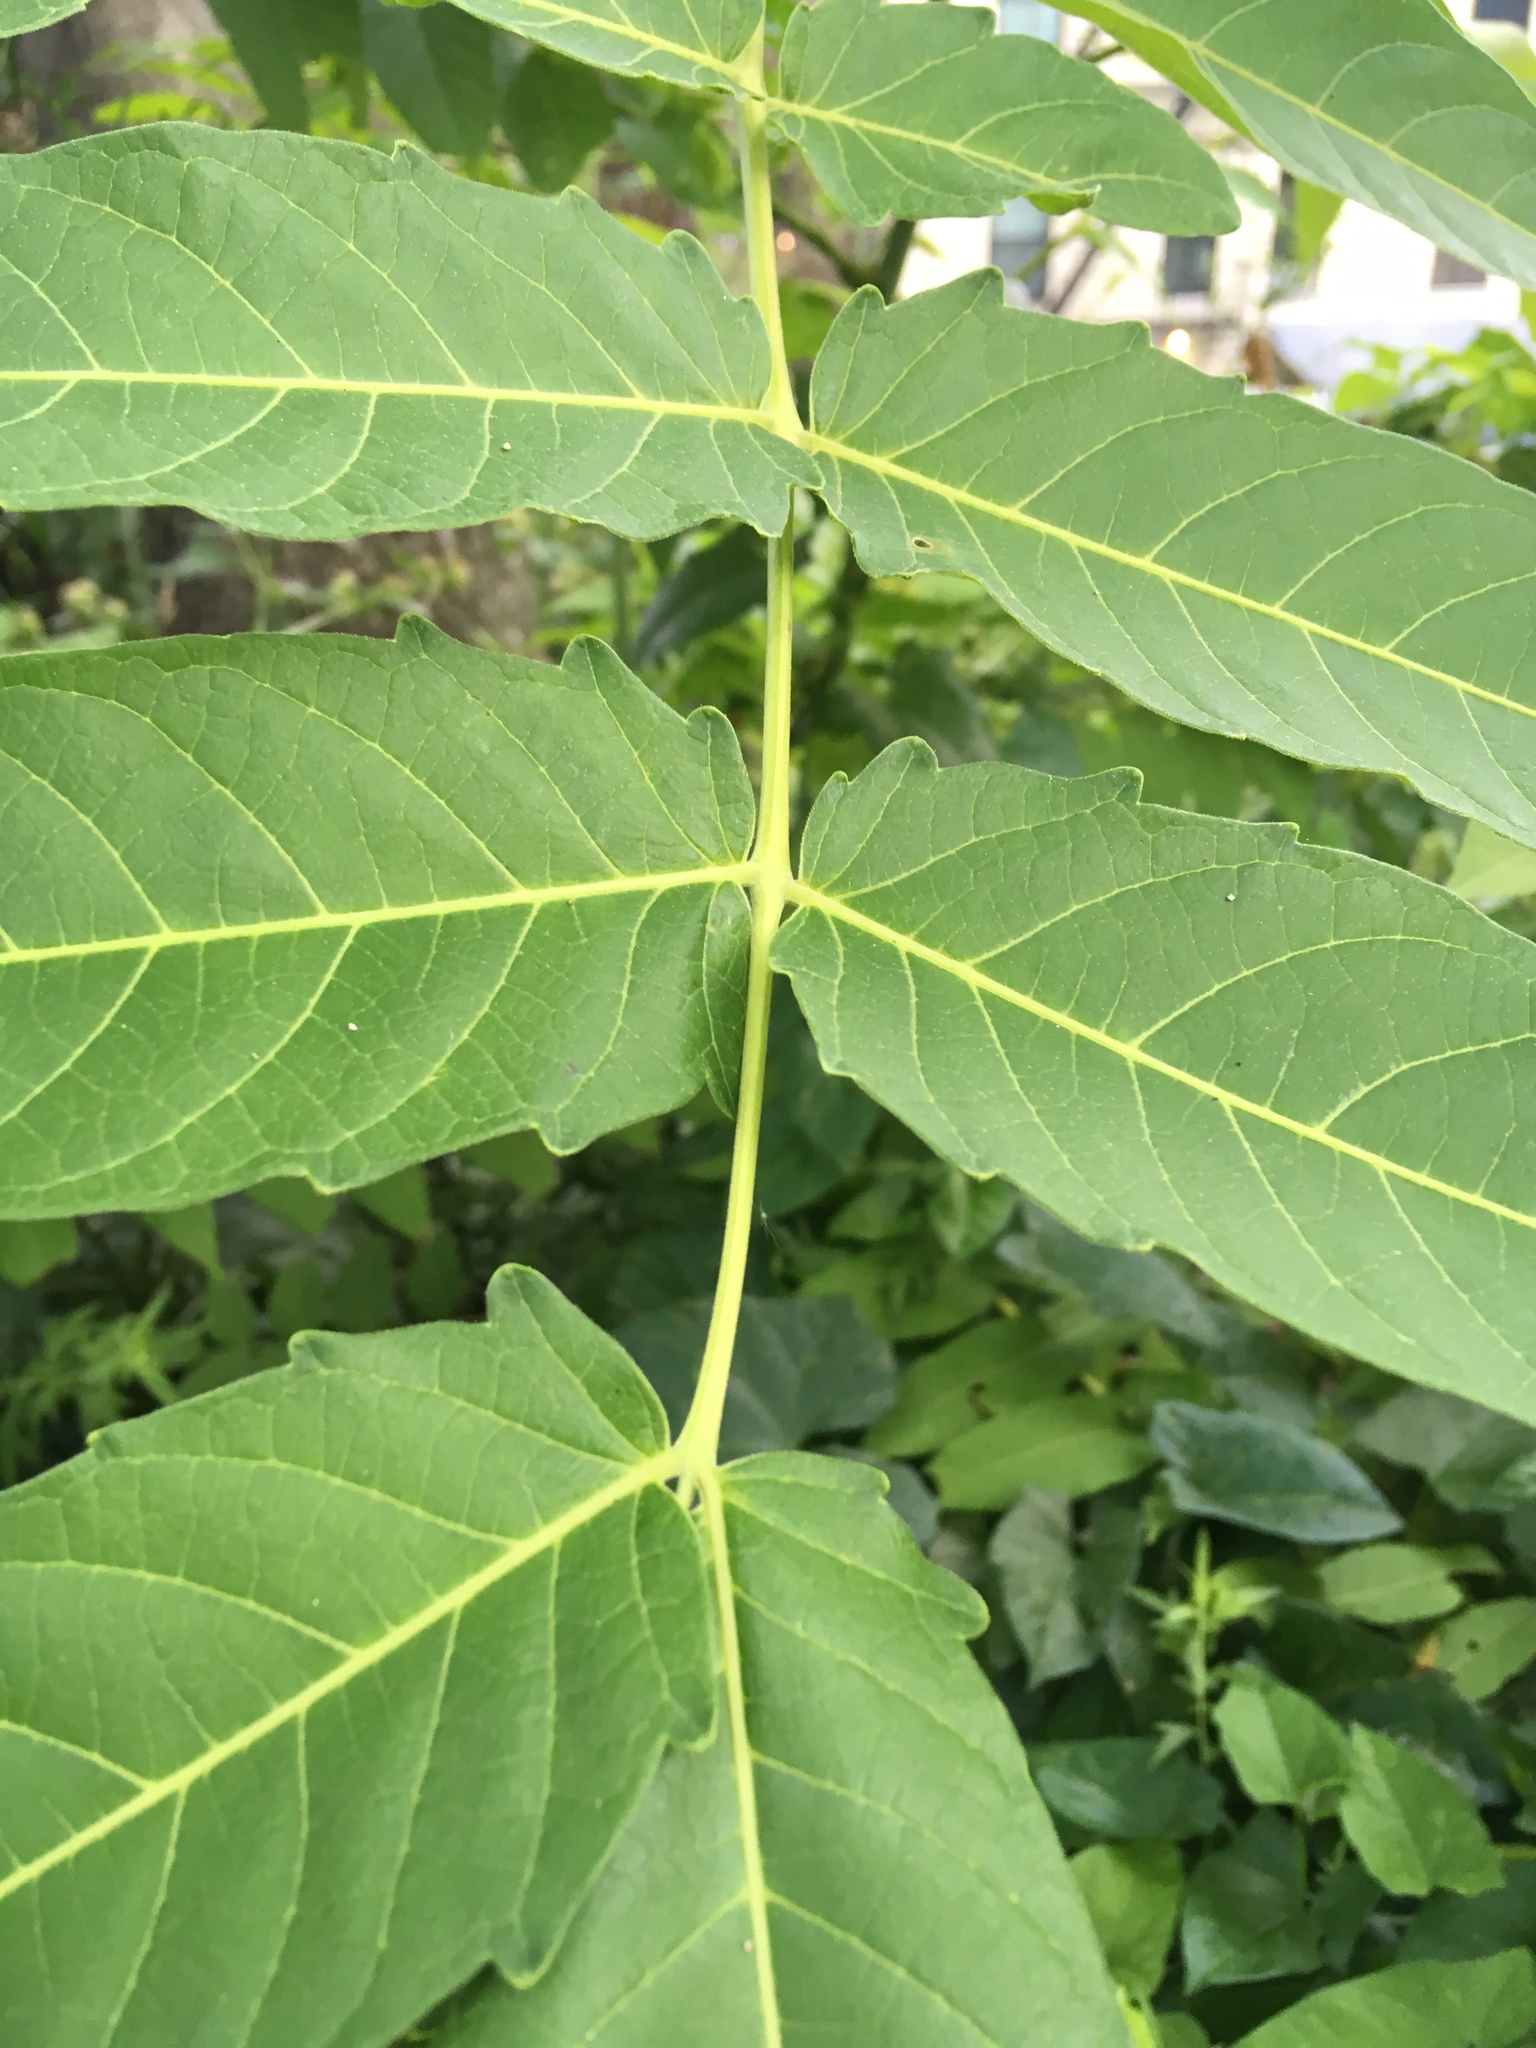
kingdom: Plantae
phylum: Tracheophyta
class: Magnoliopsida
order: Sapindales
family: Simaroubaceae
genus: Ailanthus
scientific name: Ailanthus altissima
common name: Tree-of-heaven
